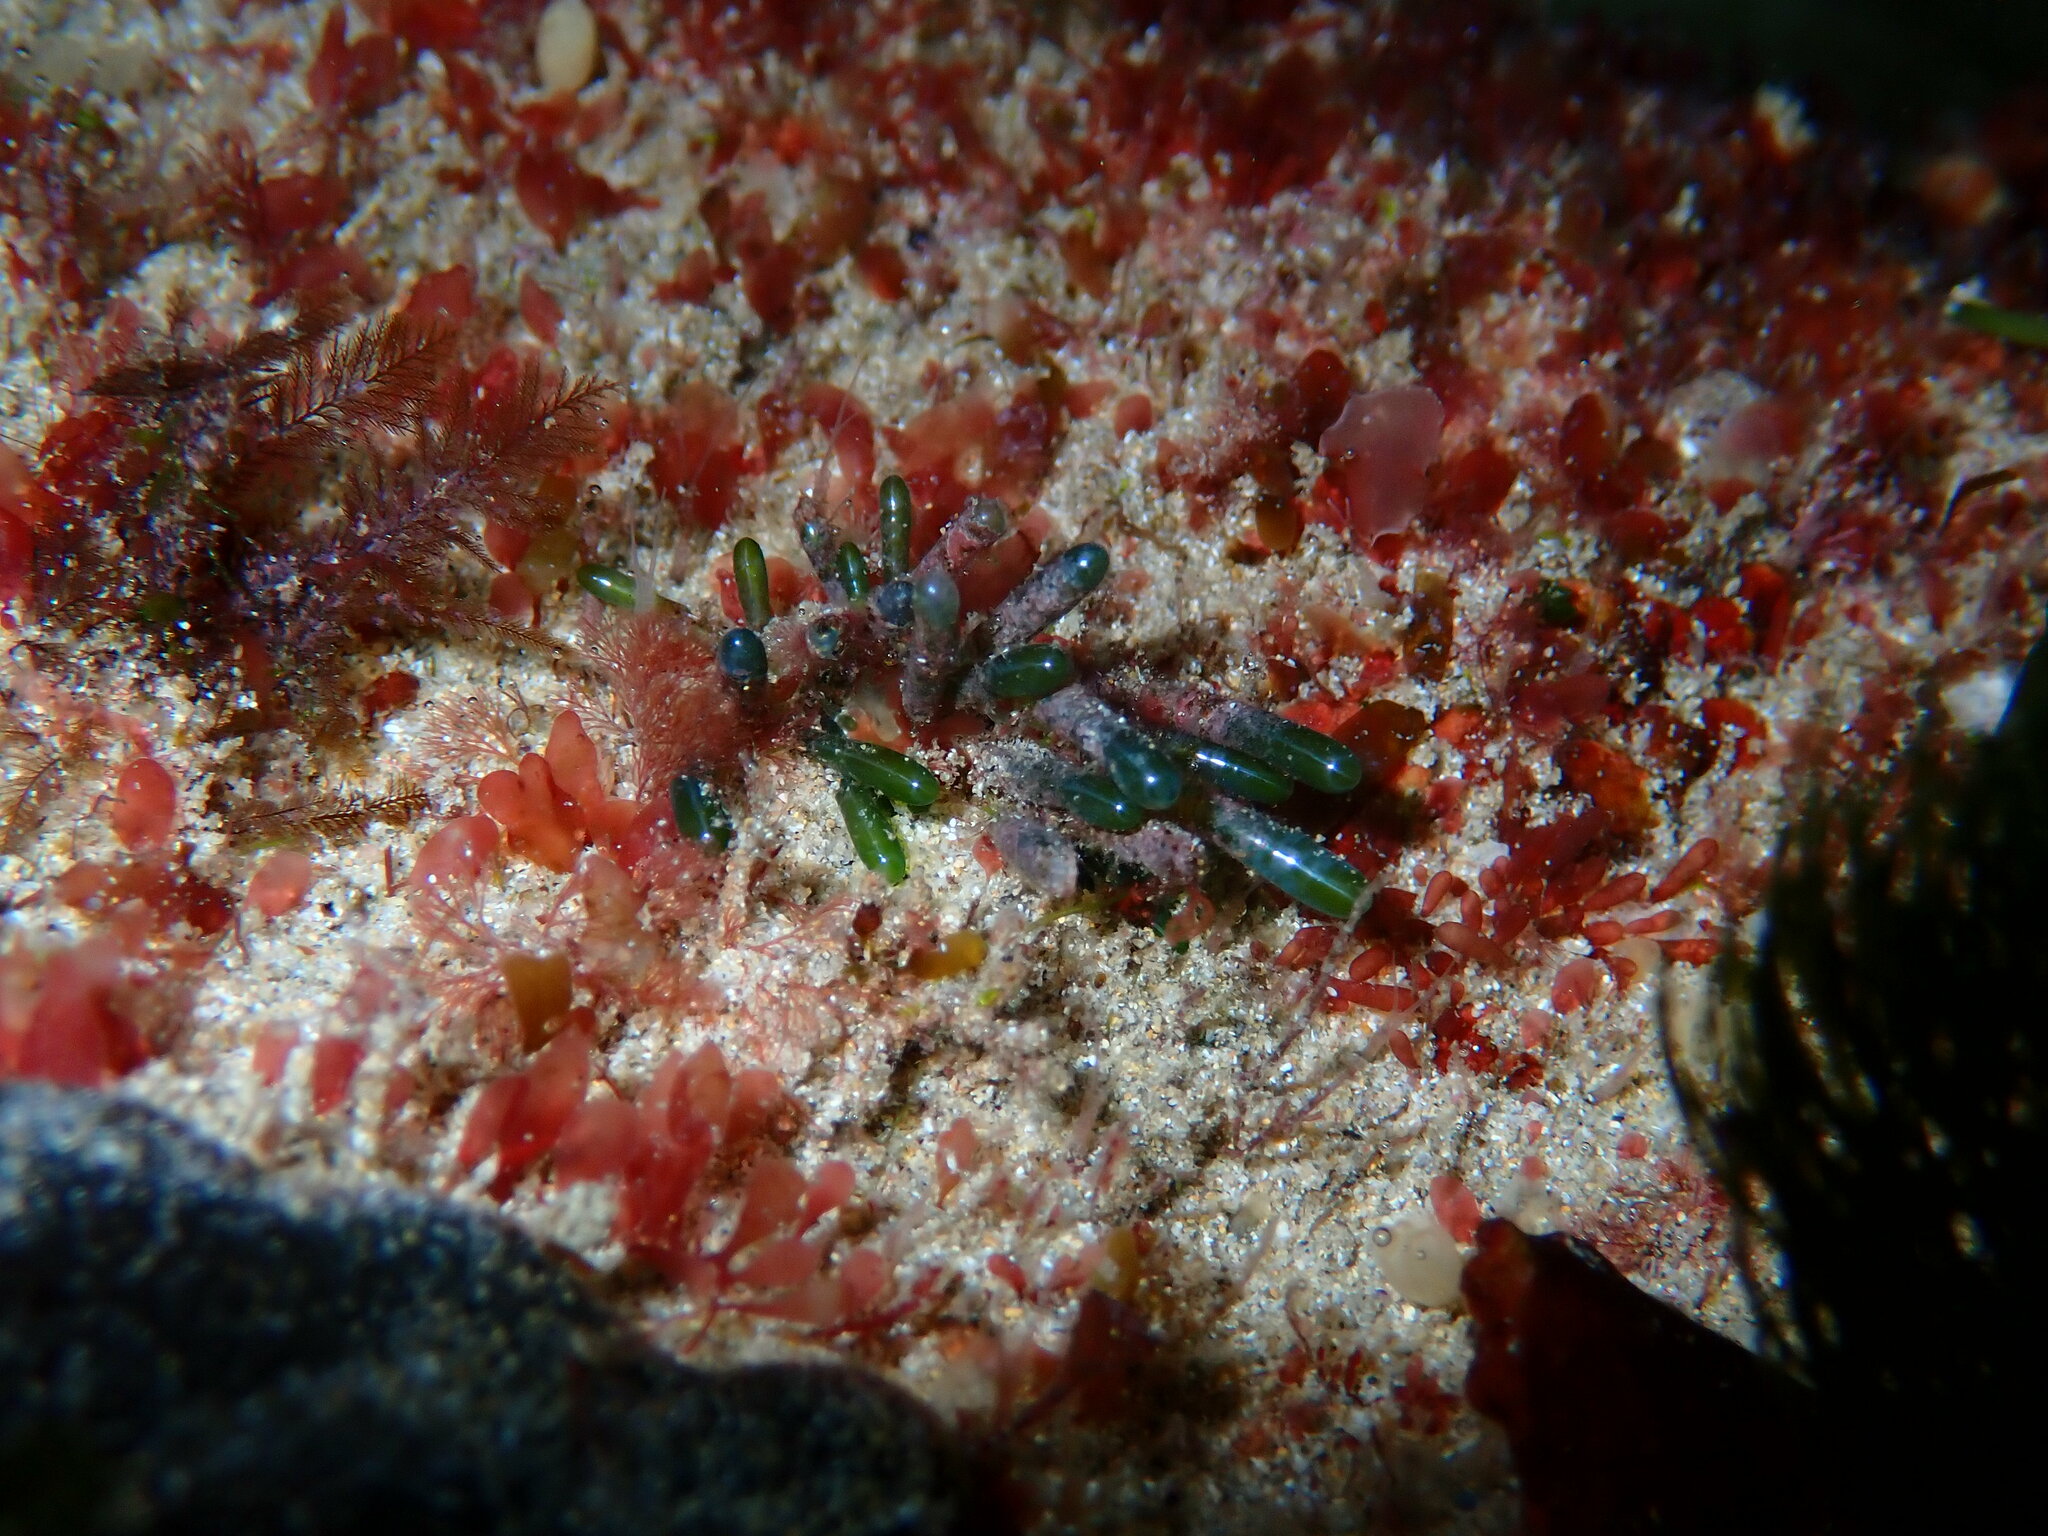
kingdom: Plantae
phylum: Chlorophyta
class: Ulvophyceae
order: Siphonocladales
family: Siphonocladaceae
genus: Apjohnia
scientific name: Apjohnia laetevirens
